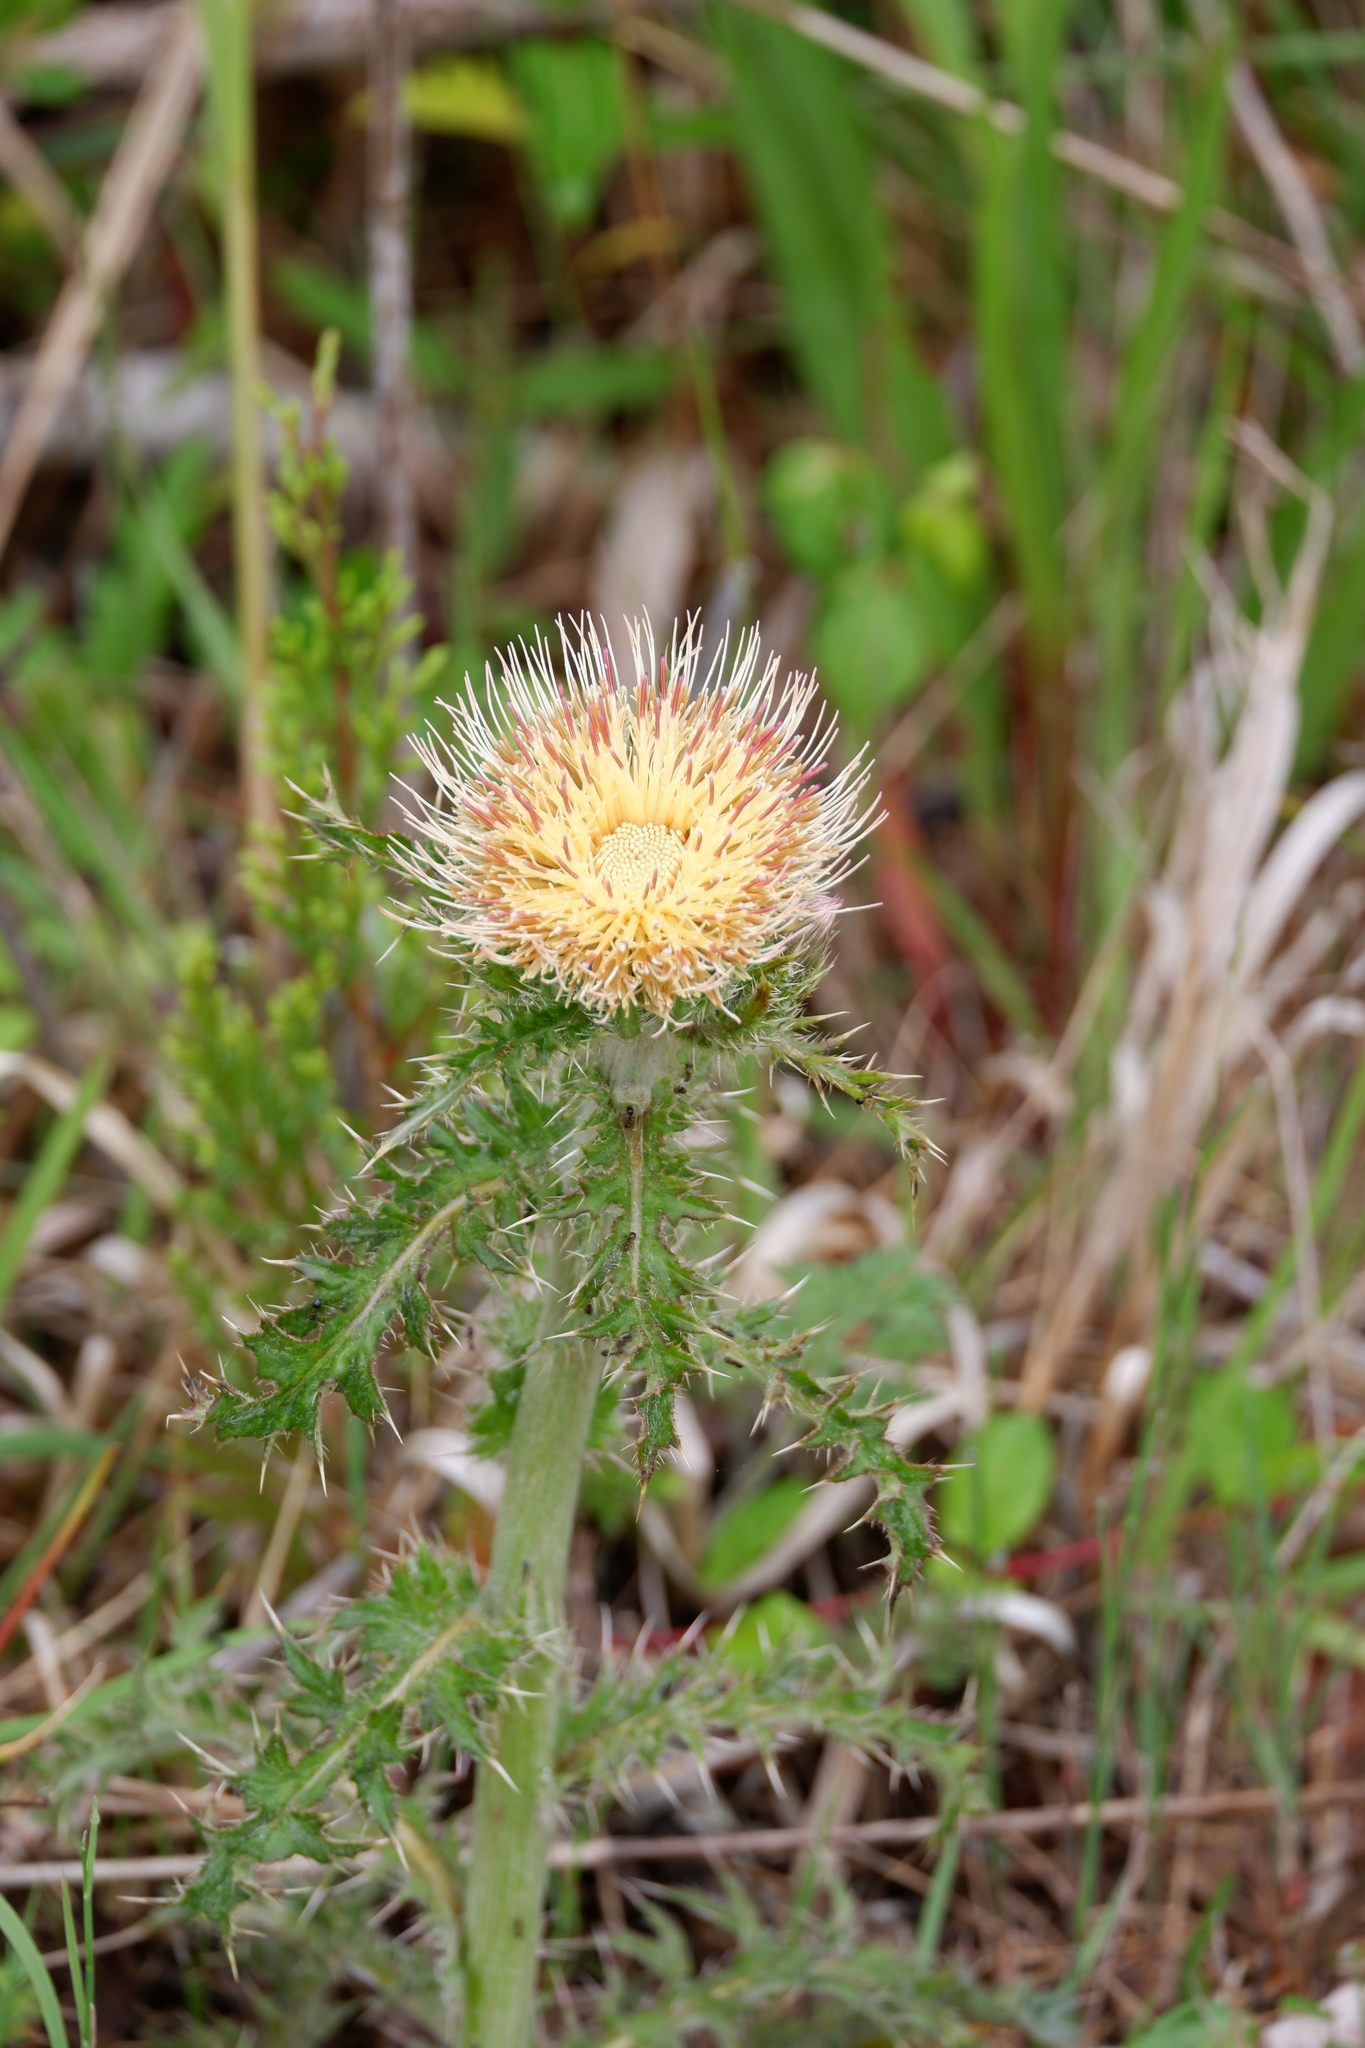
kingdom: Plantae
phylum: Tracheophyta
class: Magnoliopsida
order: Asterales
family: Asteraceae
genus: Cirsium
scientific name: Cirsium horridulum
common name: Bristly thistle
